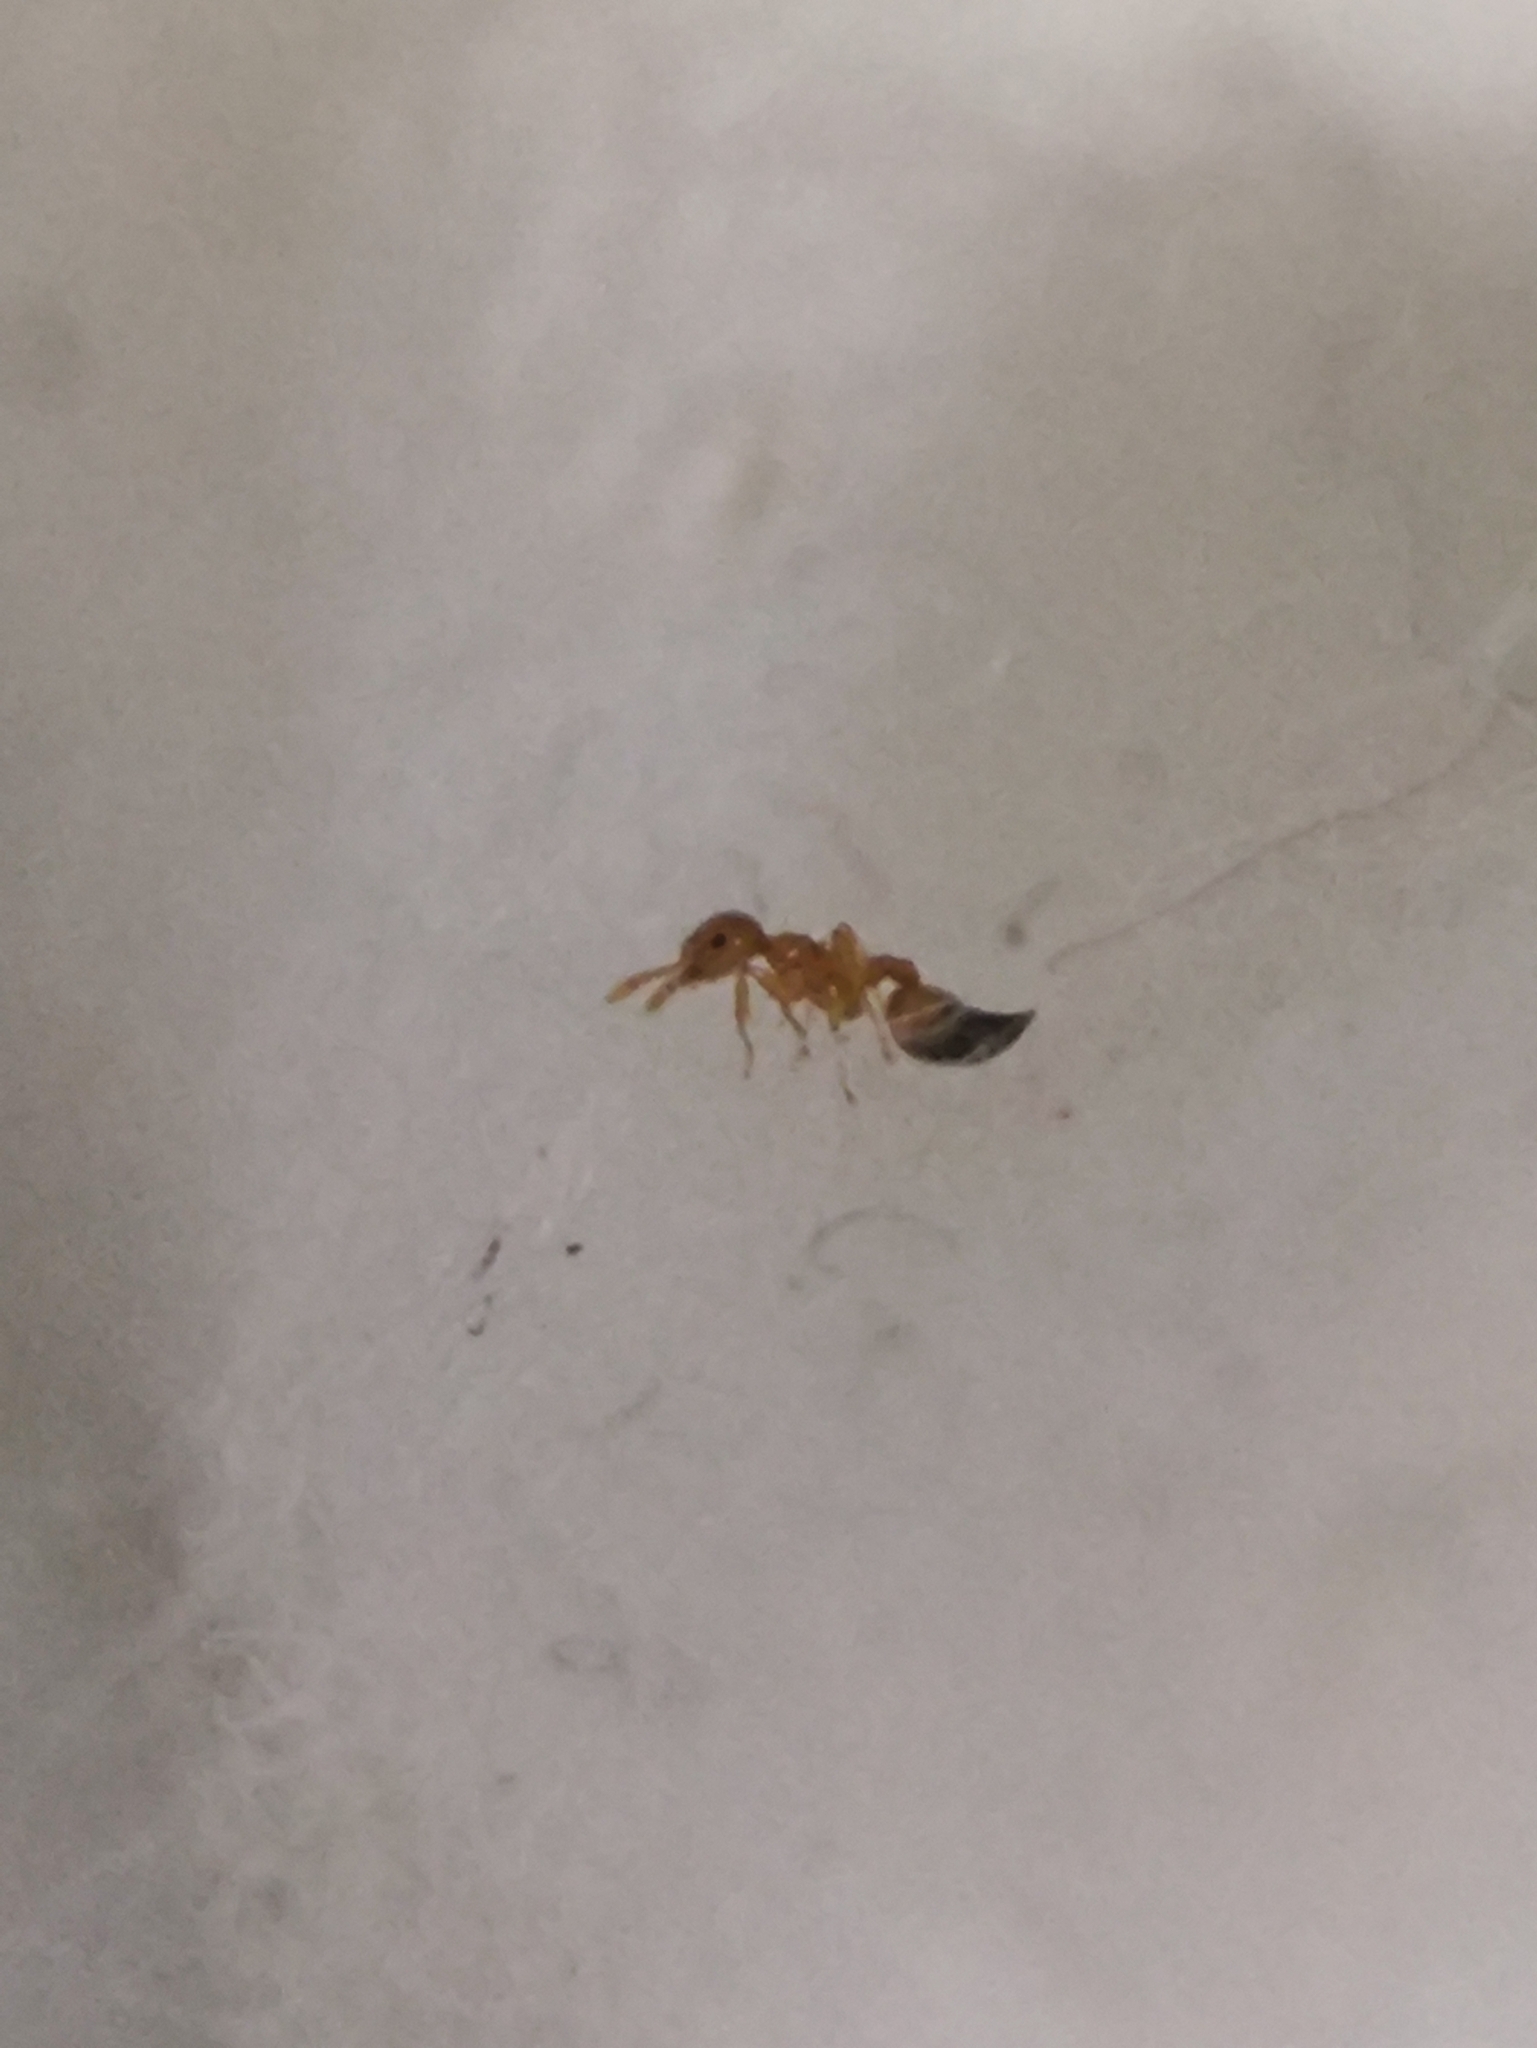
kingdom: Animalia
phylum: Arthropoda
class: Insecta
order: Hymenoptera
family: Formicidae
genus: Crematogaster
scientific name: Crematogaster biroi
